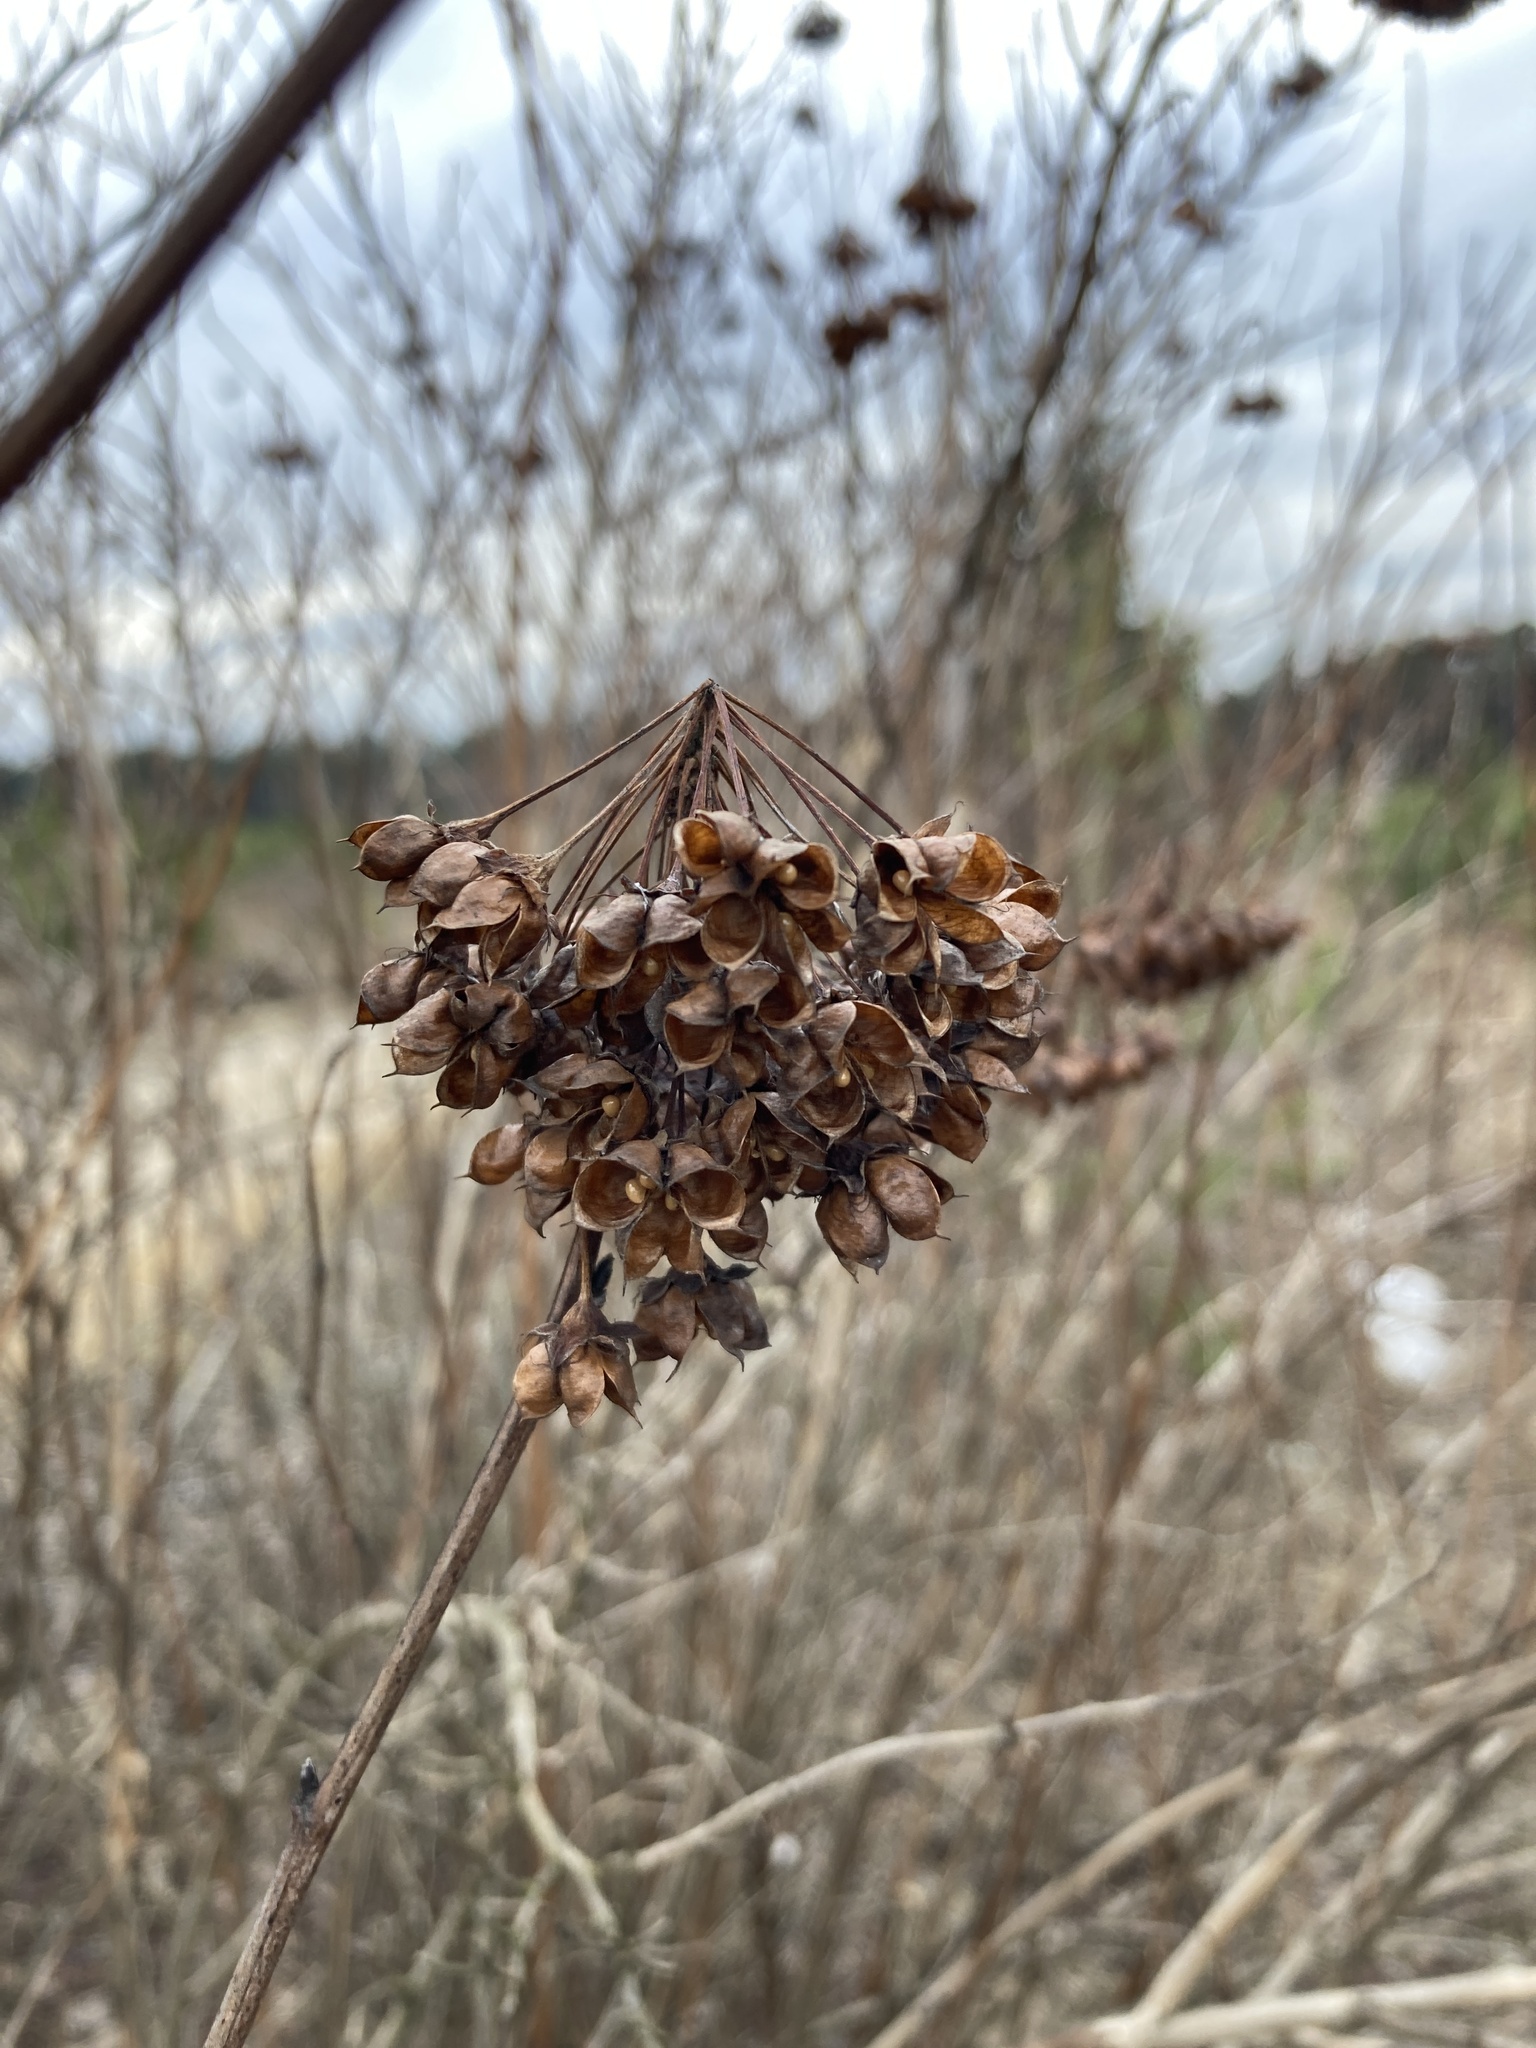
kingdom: Plantae
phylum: Tracheophyta
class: Magnoliopsida
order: Rosales
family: Rosaceae
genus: Physocarpus
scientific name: Physocarpus opulifolius
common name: Ninebark
